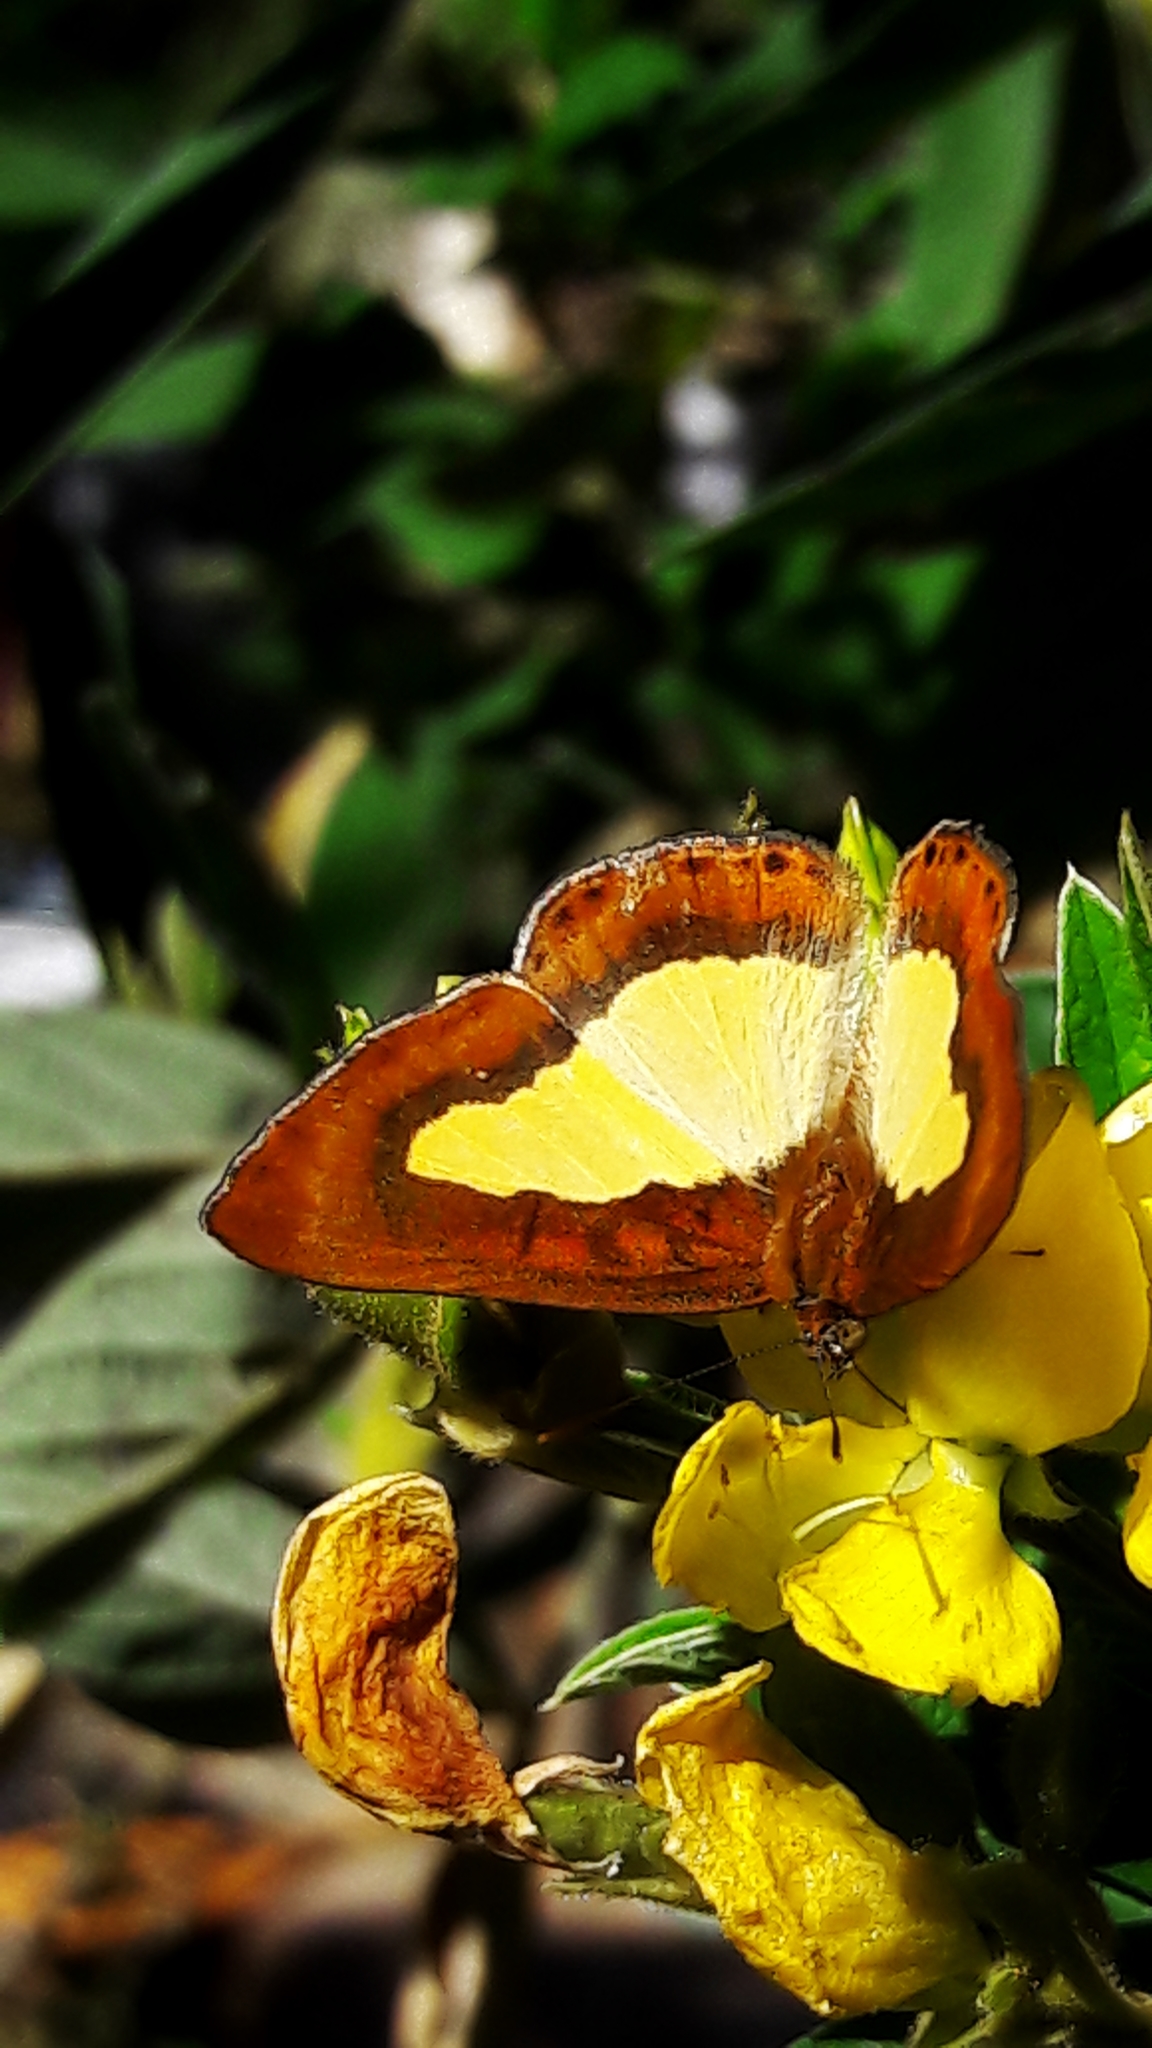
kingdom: Animalia
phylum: Arthropoda
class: Insecta
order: Lepidoptera
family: Riodinidae
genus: Nymula
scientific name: Nymula agle
